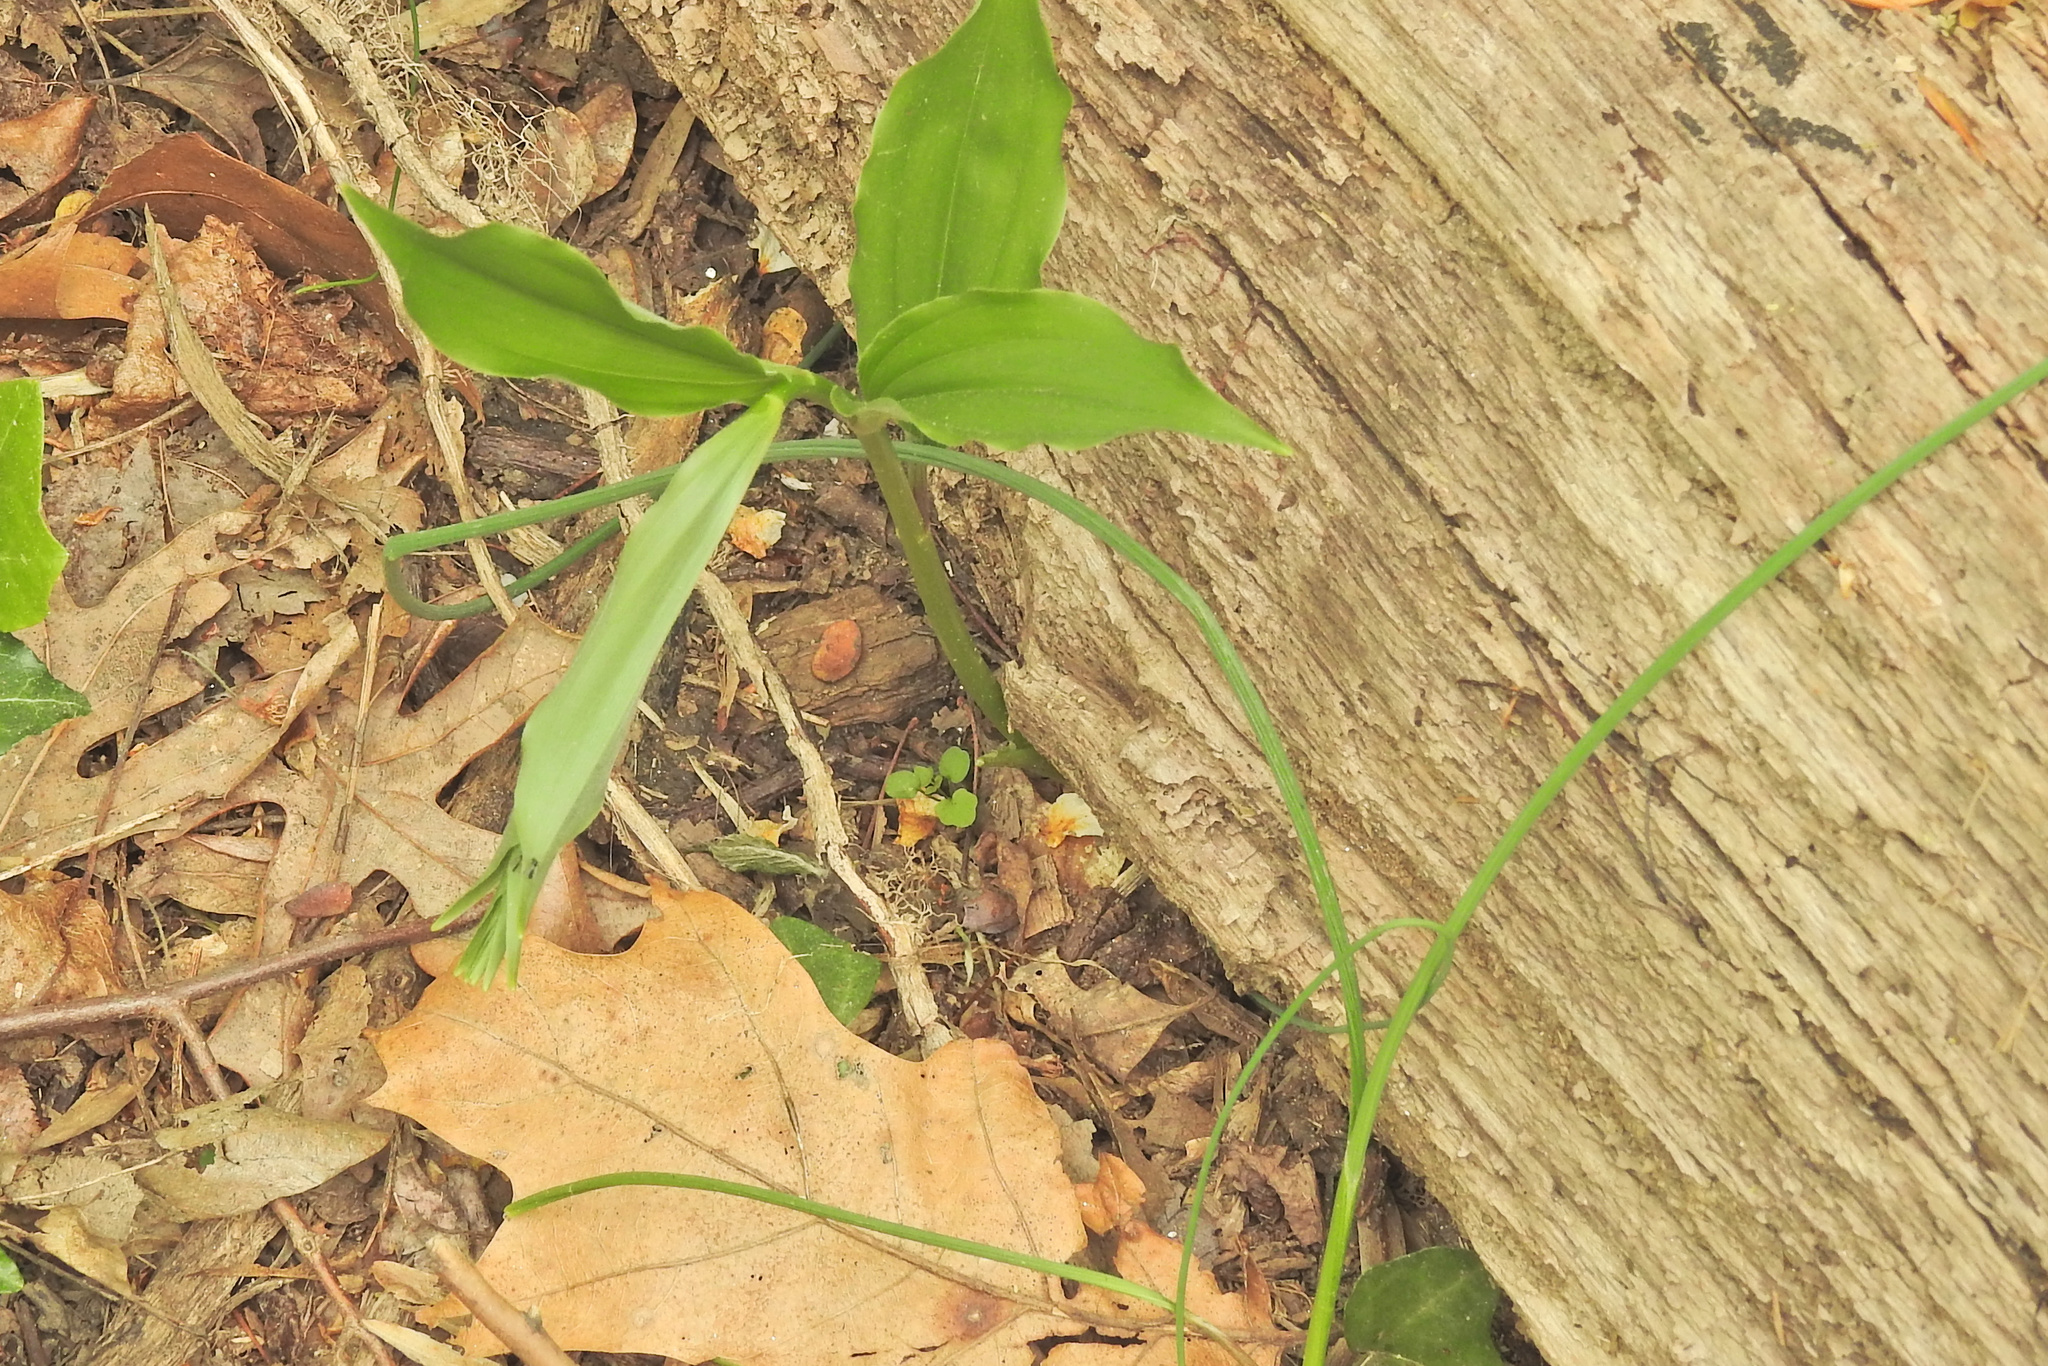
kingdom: Plantae
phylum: Tracheophyta
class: Liliopsida
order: Asparagales
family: Asparagaceae
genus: Maianthemum
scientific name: Maianthemum racemosum
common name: False spikenard
